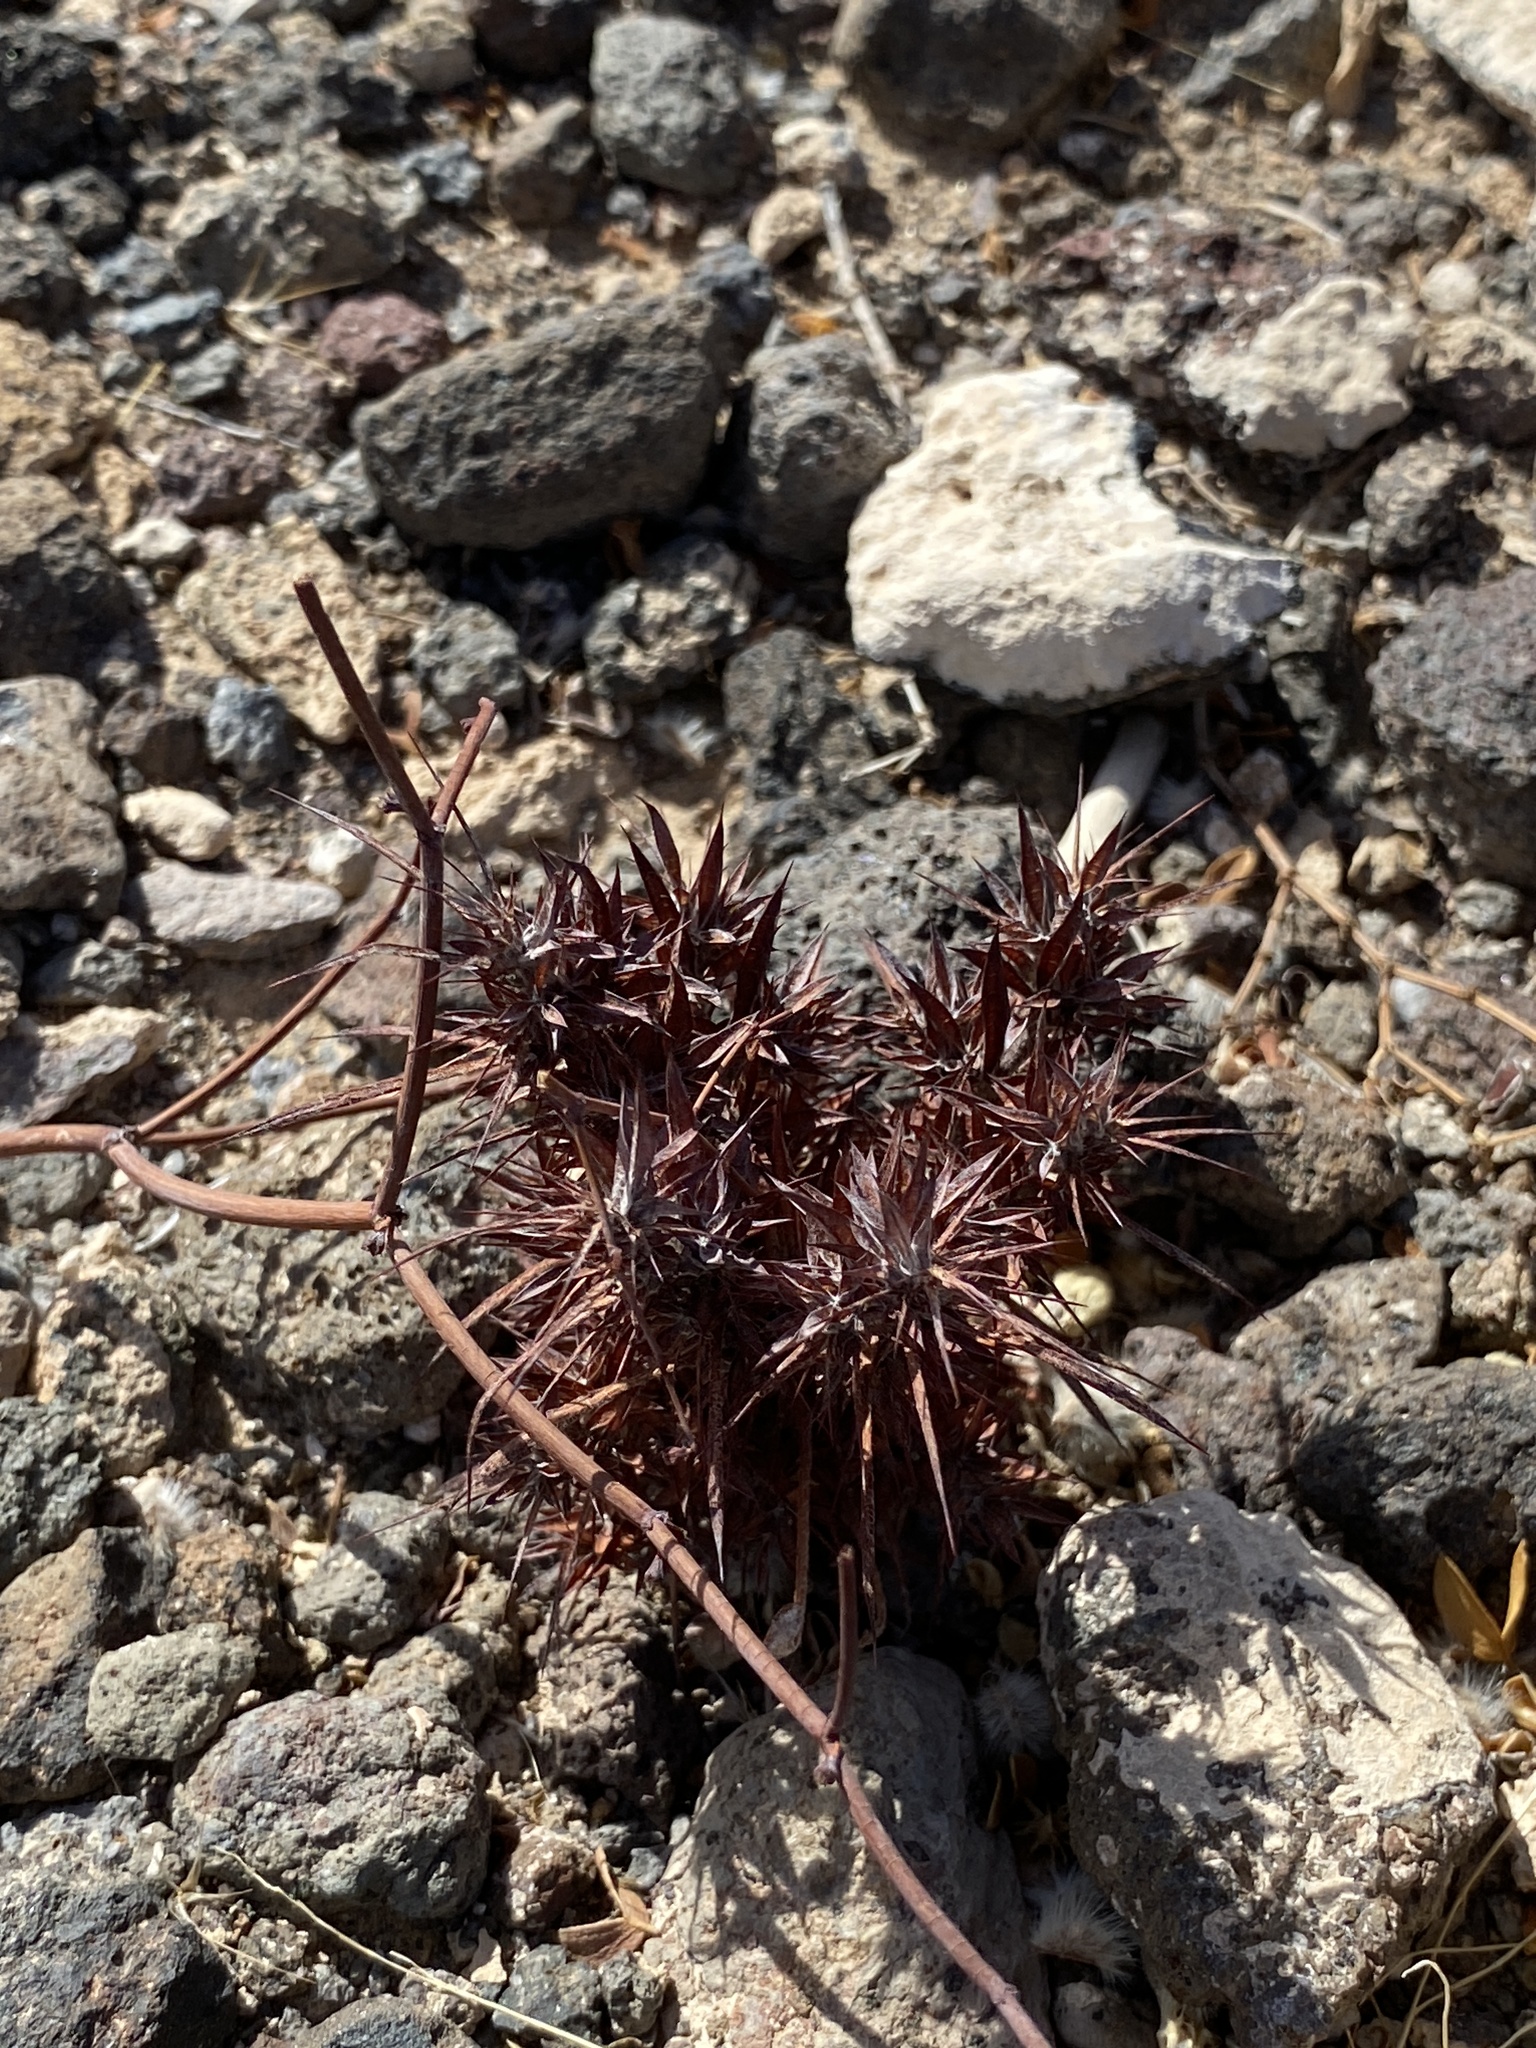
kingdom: Plantae
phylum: Tracheophyta
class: Magnoliopsida
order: Caryophyllales
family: Polygonaceae
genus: Chorizanthe
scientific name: Chorizanthe rigida
